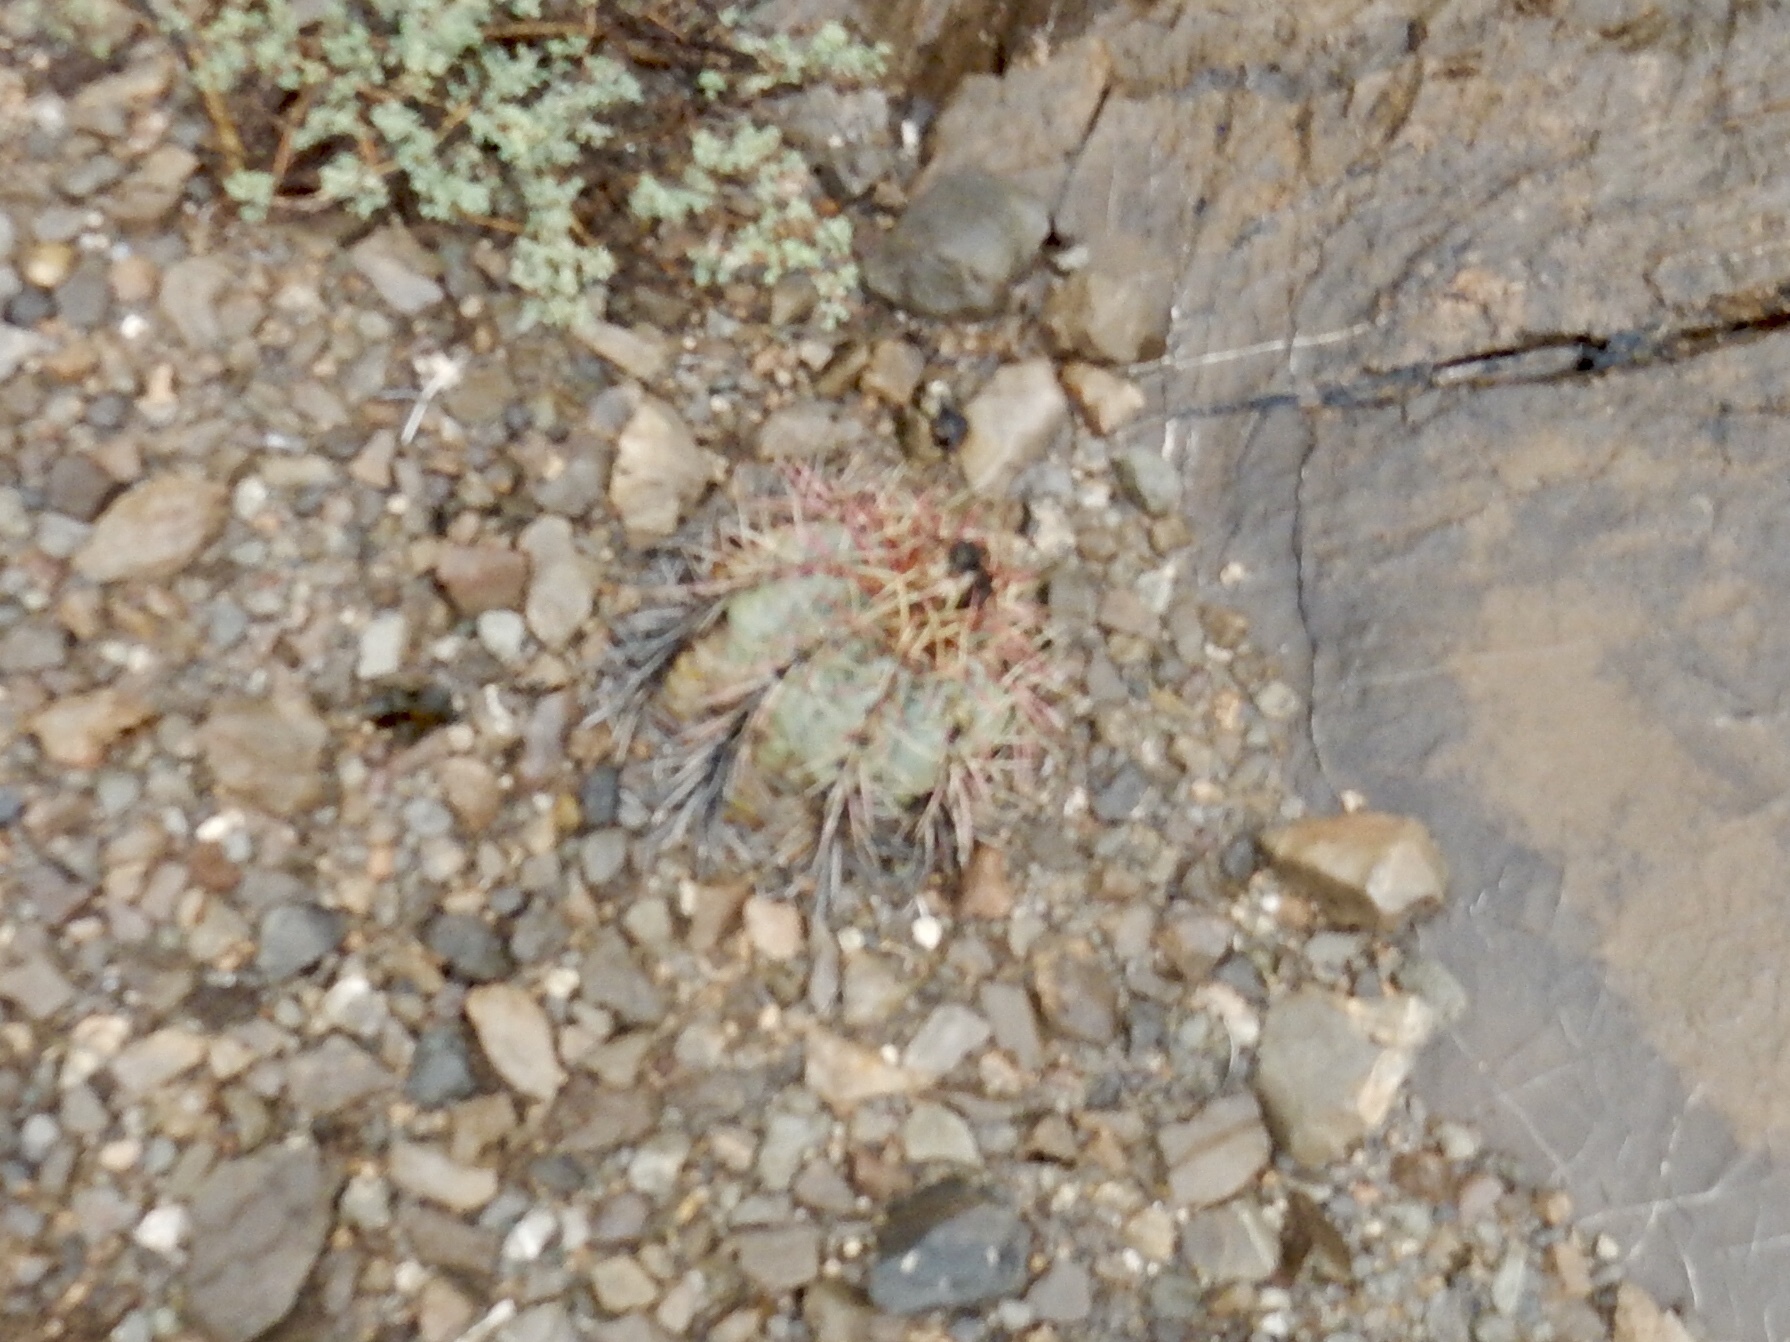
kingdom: Plantae
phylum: Tracheophyta
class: Magnoliopsida
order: Caryophyllales
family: Cactaceae
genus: Echinocactus
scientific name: Echinocactus horizonthalonius
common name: Devilshead
